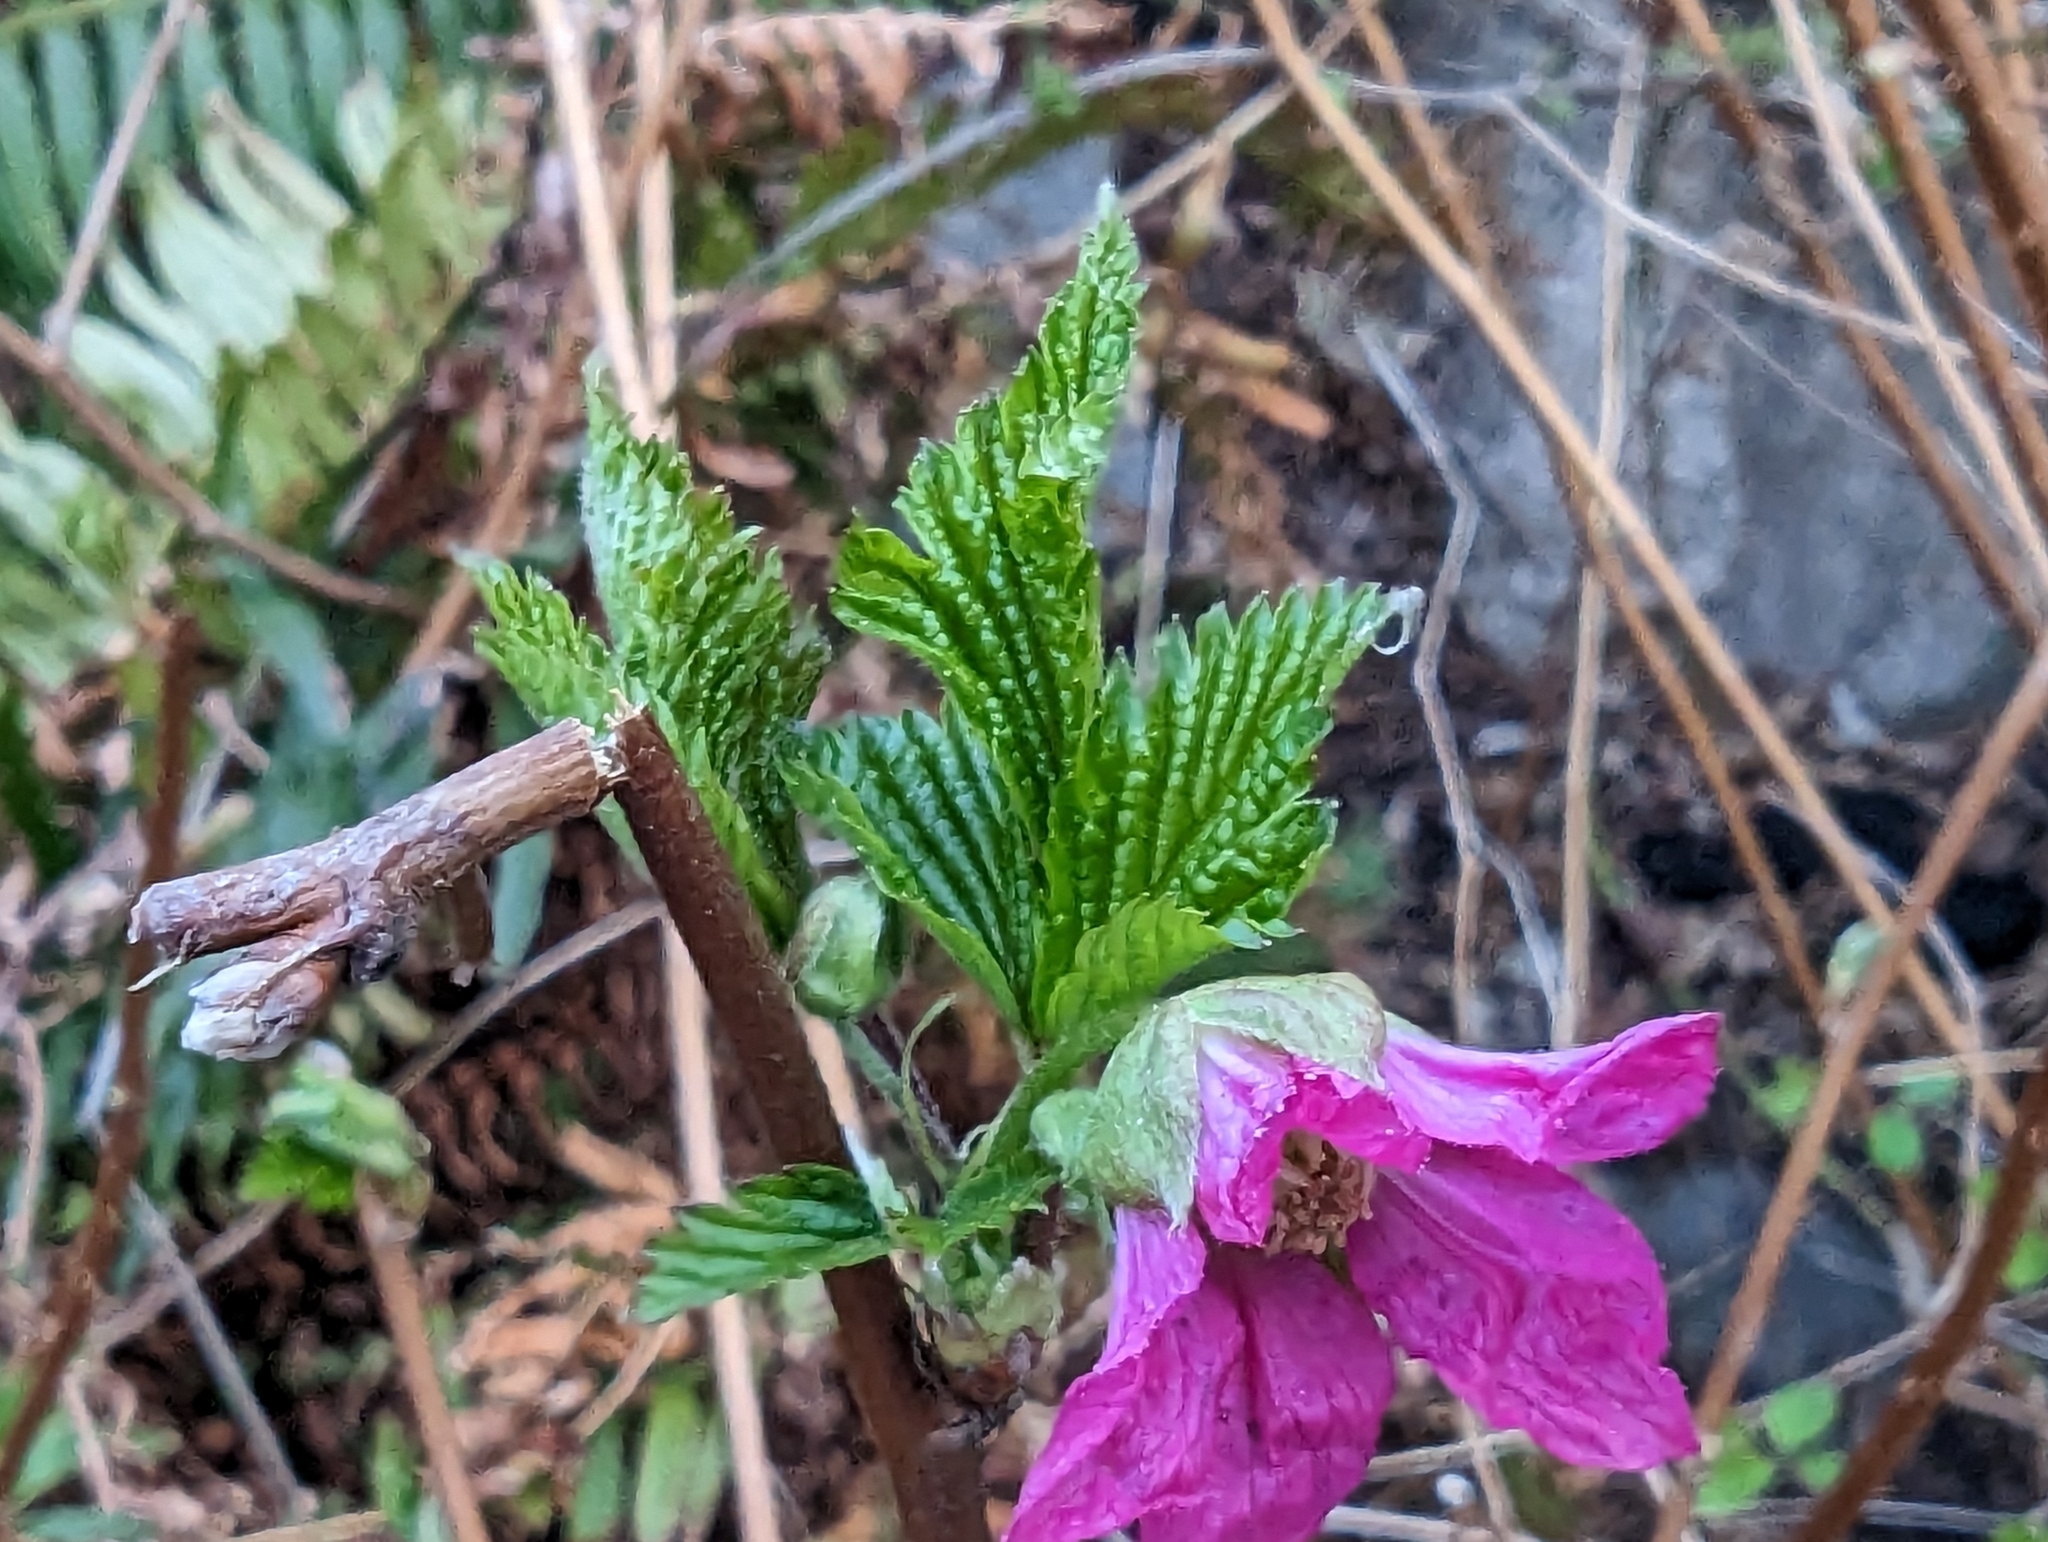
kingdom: Plantae
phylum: Tracheophyta
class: Magnoliopsida
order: Rosales
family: Rosaceae
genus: Rubus
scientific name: Rubus spectabilis
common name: Salmonberry
